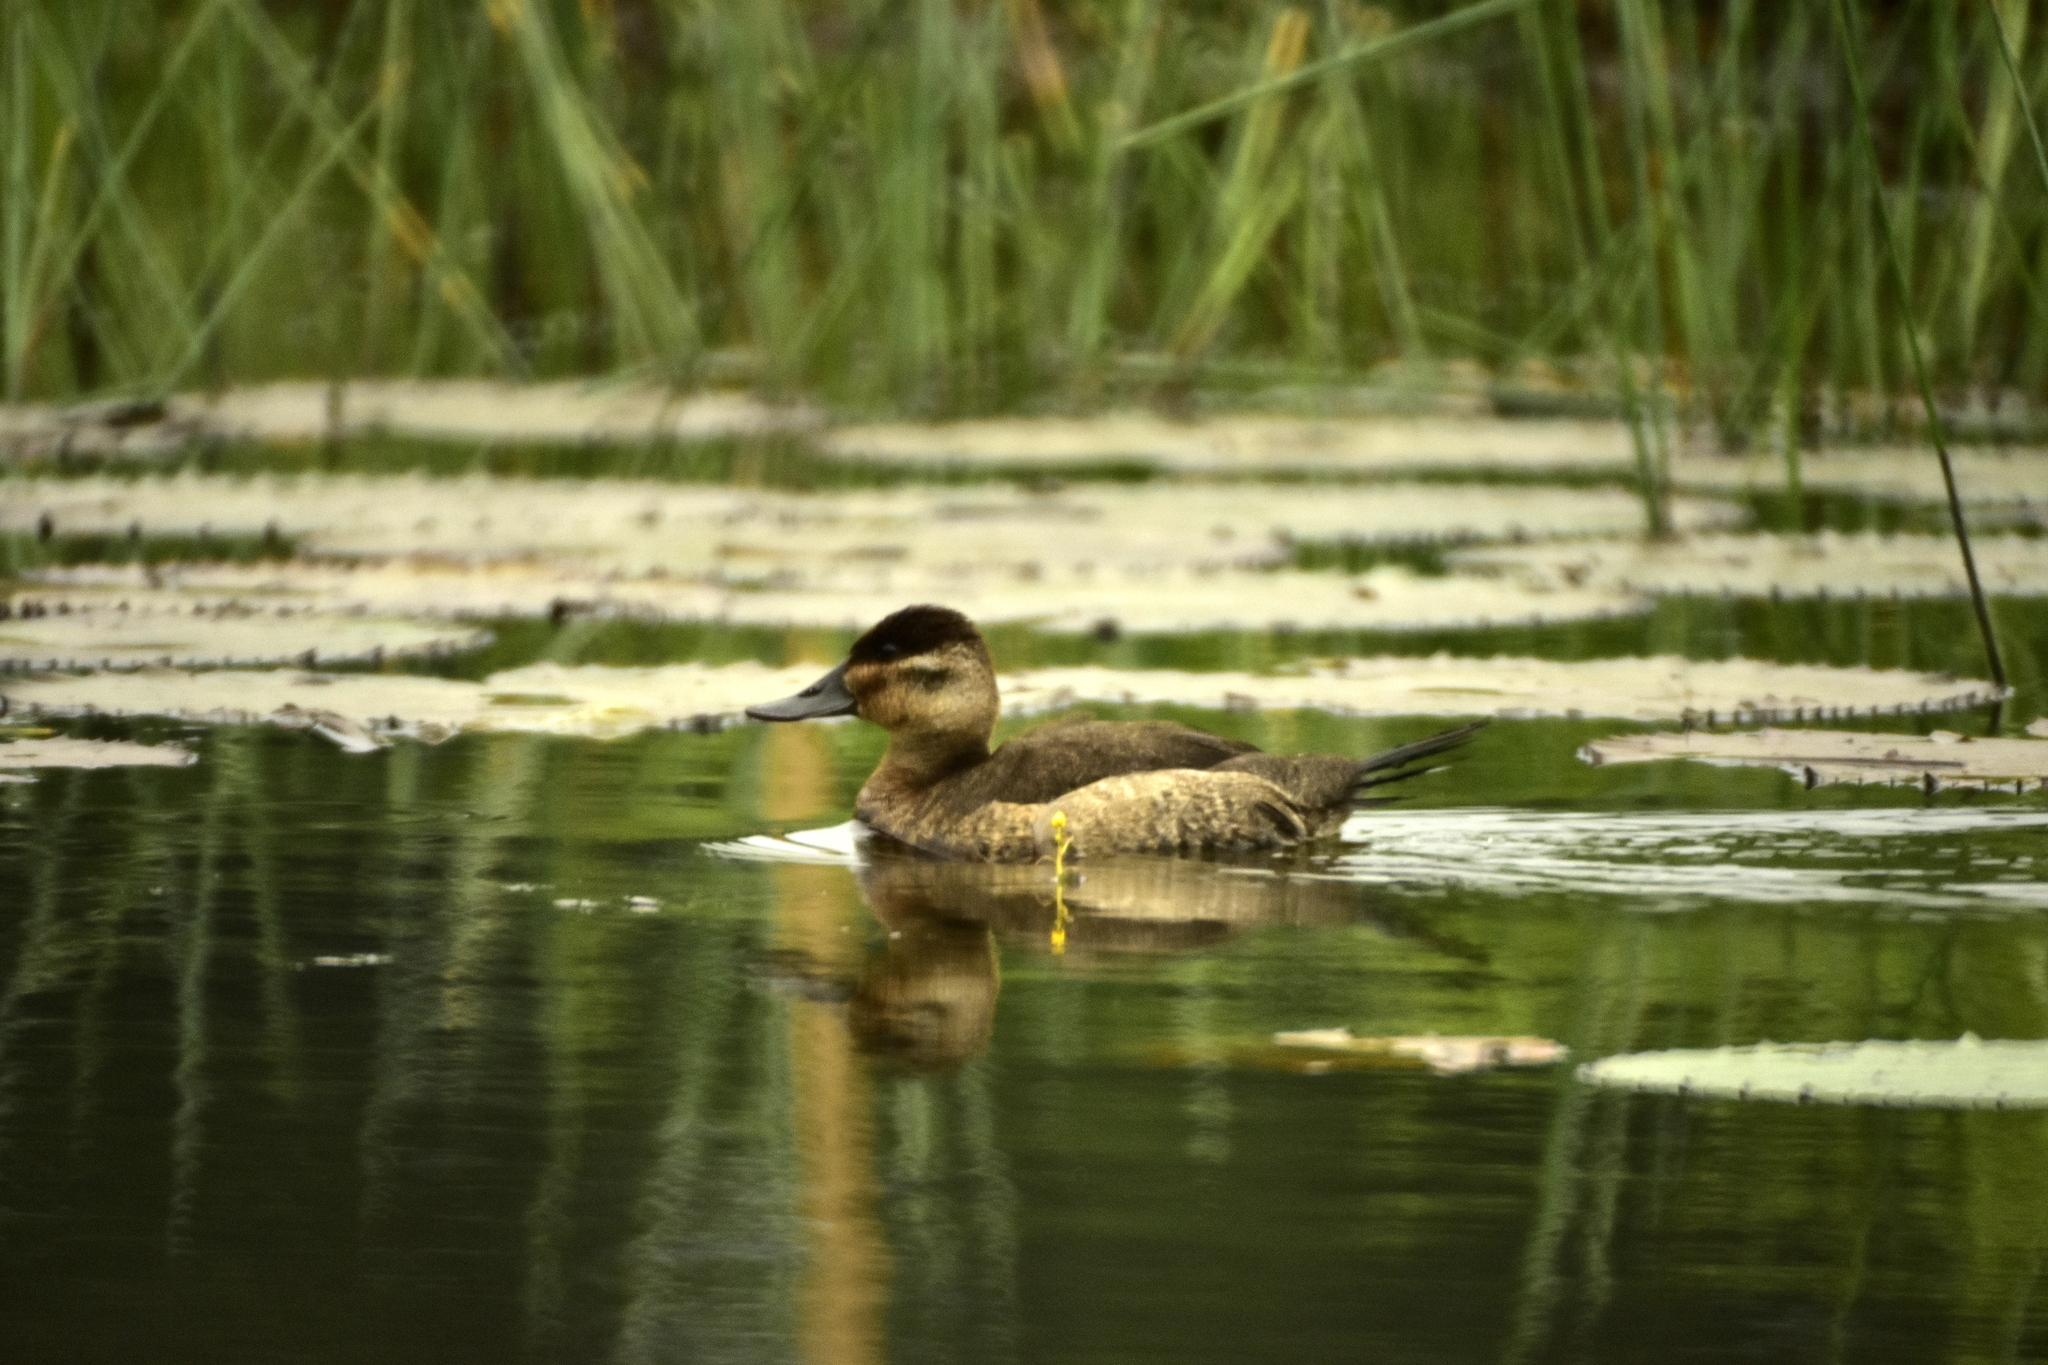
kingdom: Animalia
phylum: Chordata
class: Aves
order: Anseriformes
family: Anatidae
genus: Oxyura
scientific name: Oxyura jamaicensis
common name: Ruddy duck
